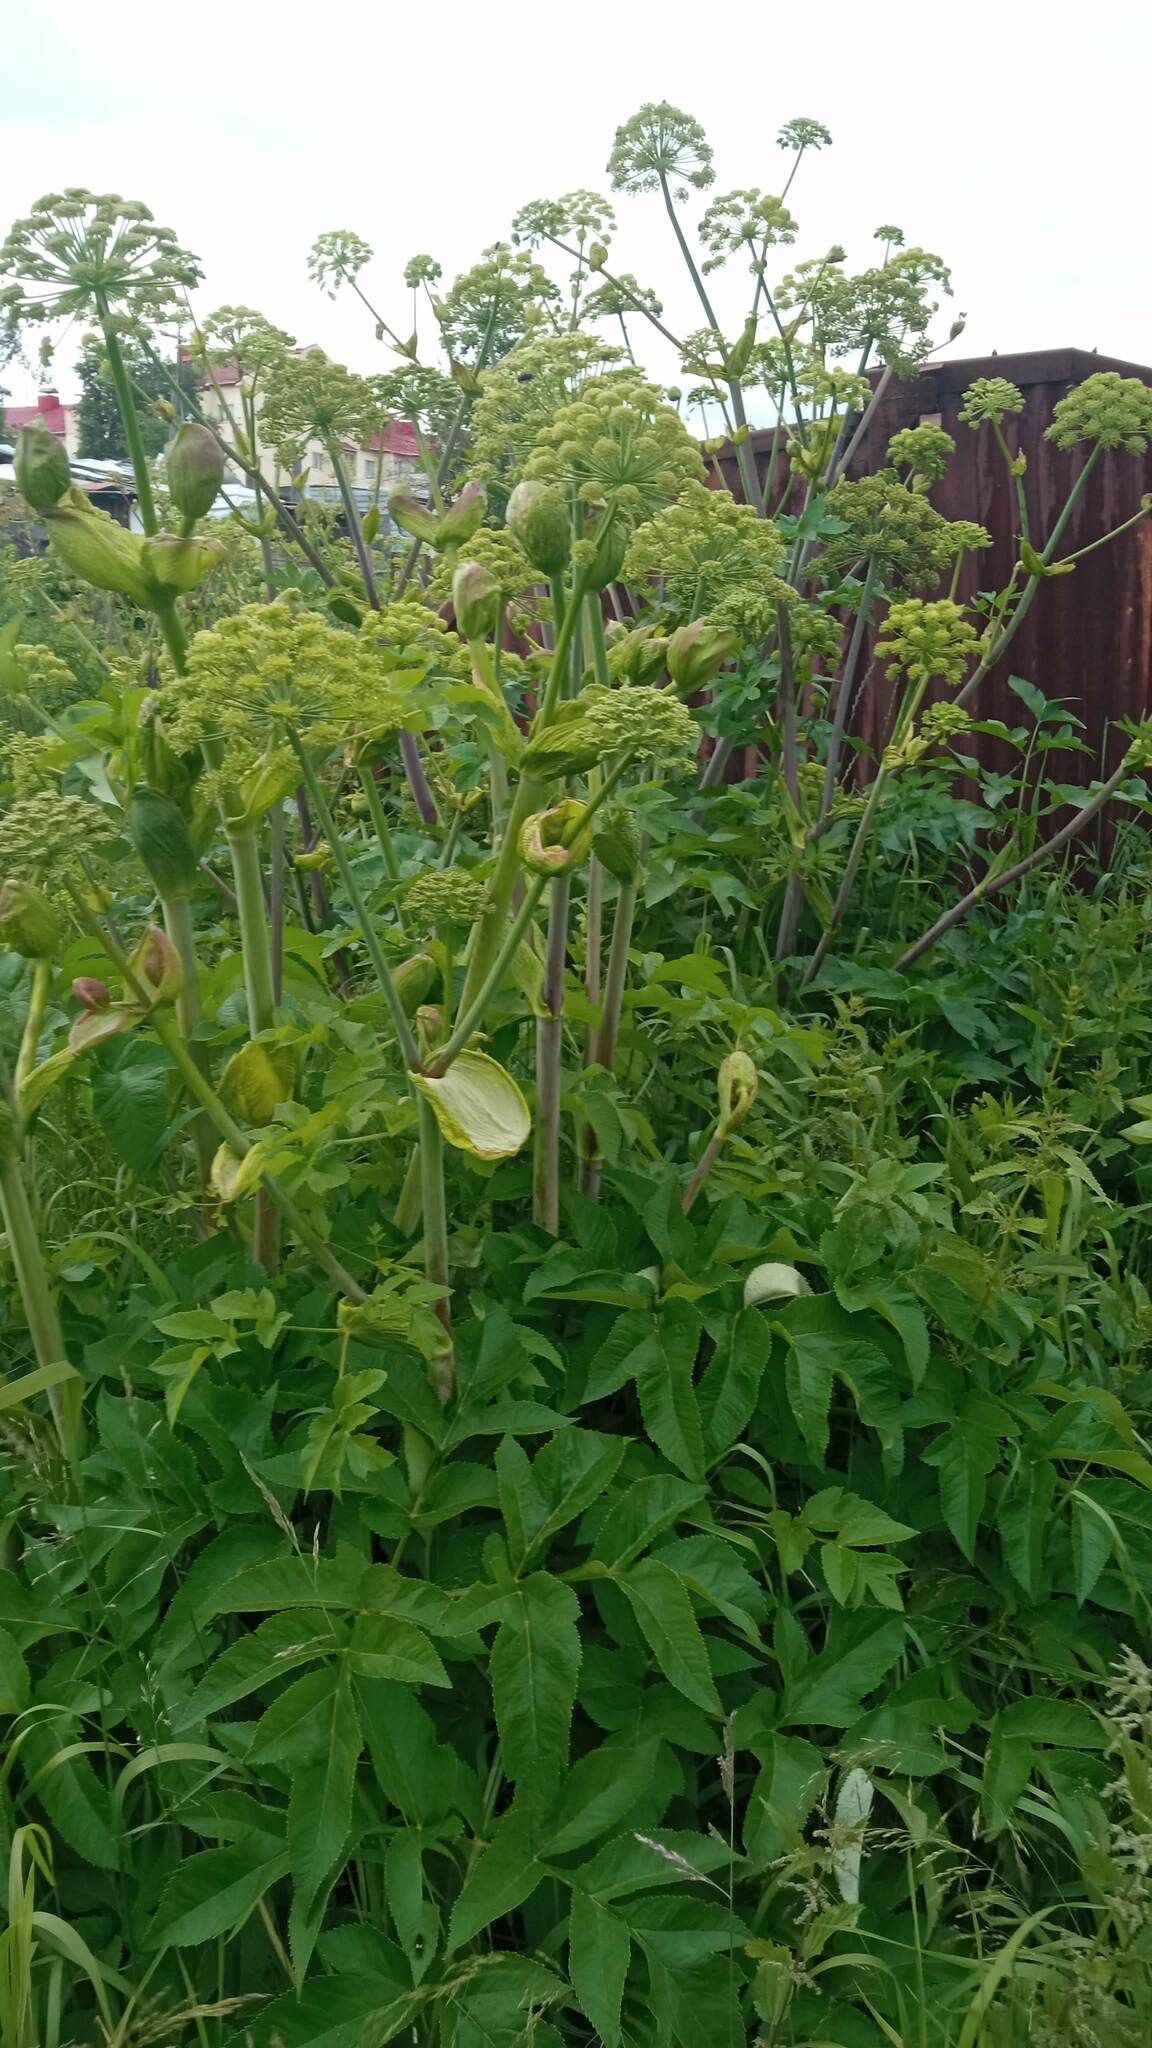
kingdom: Plantae
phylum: Tracheophyta
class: Magnoliopsida
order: Apiales
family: Apiaceae
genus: Angelica
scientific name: Angelica decurrens
